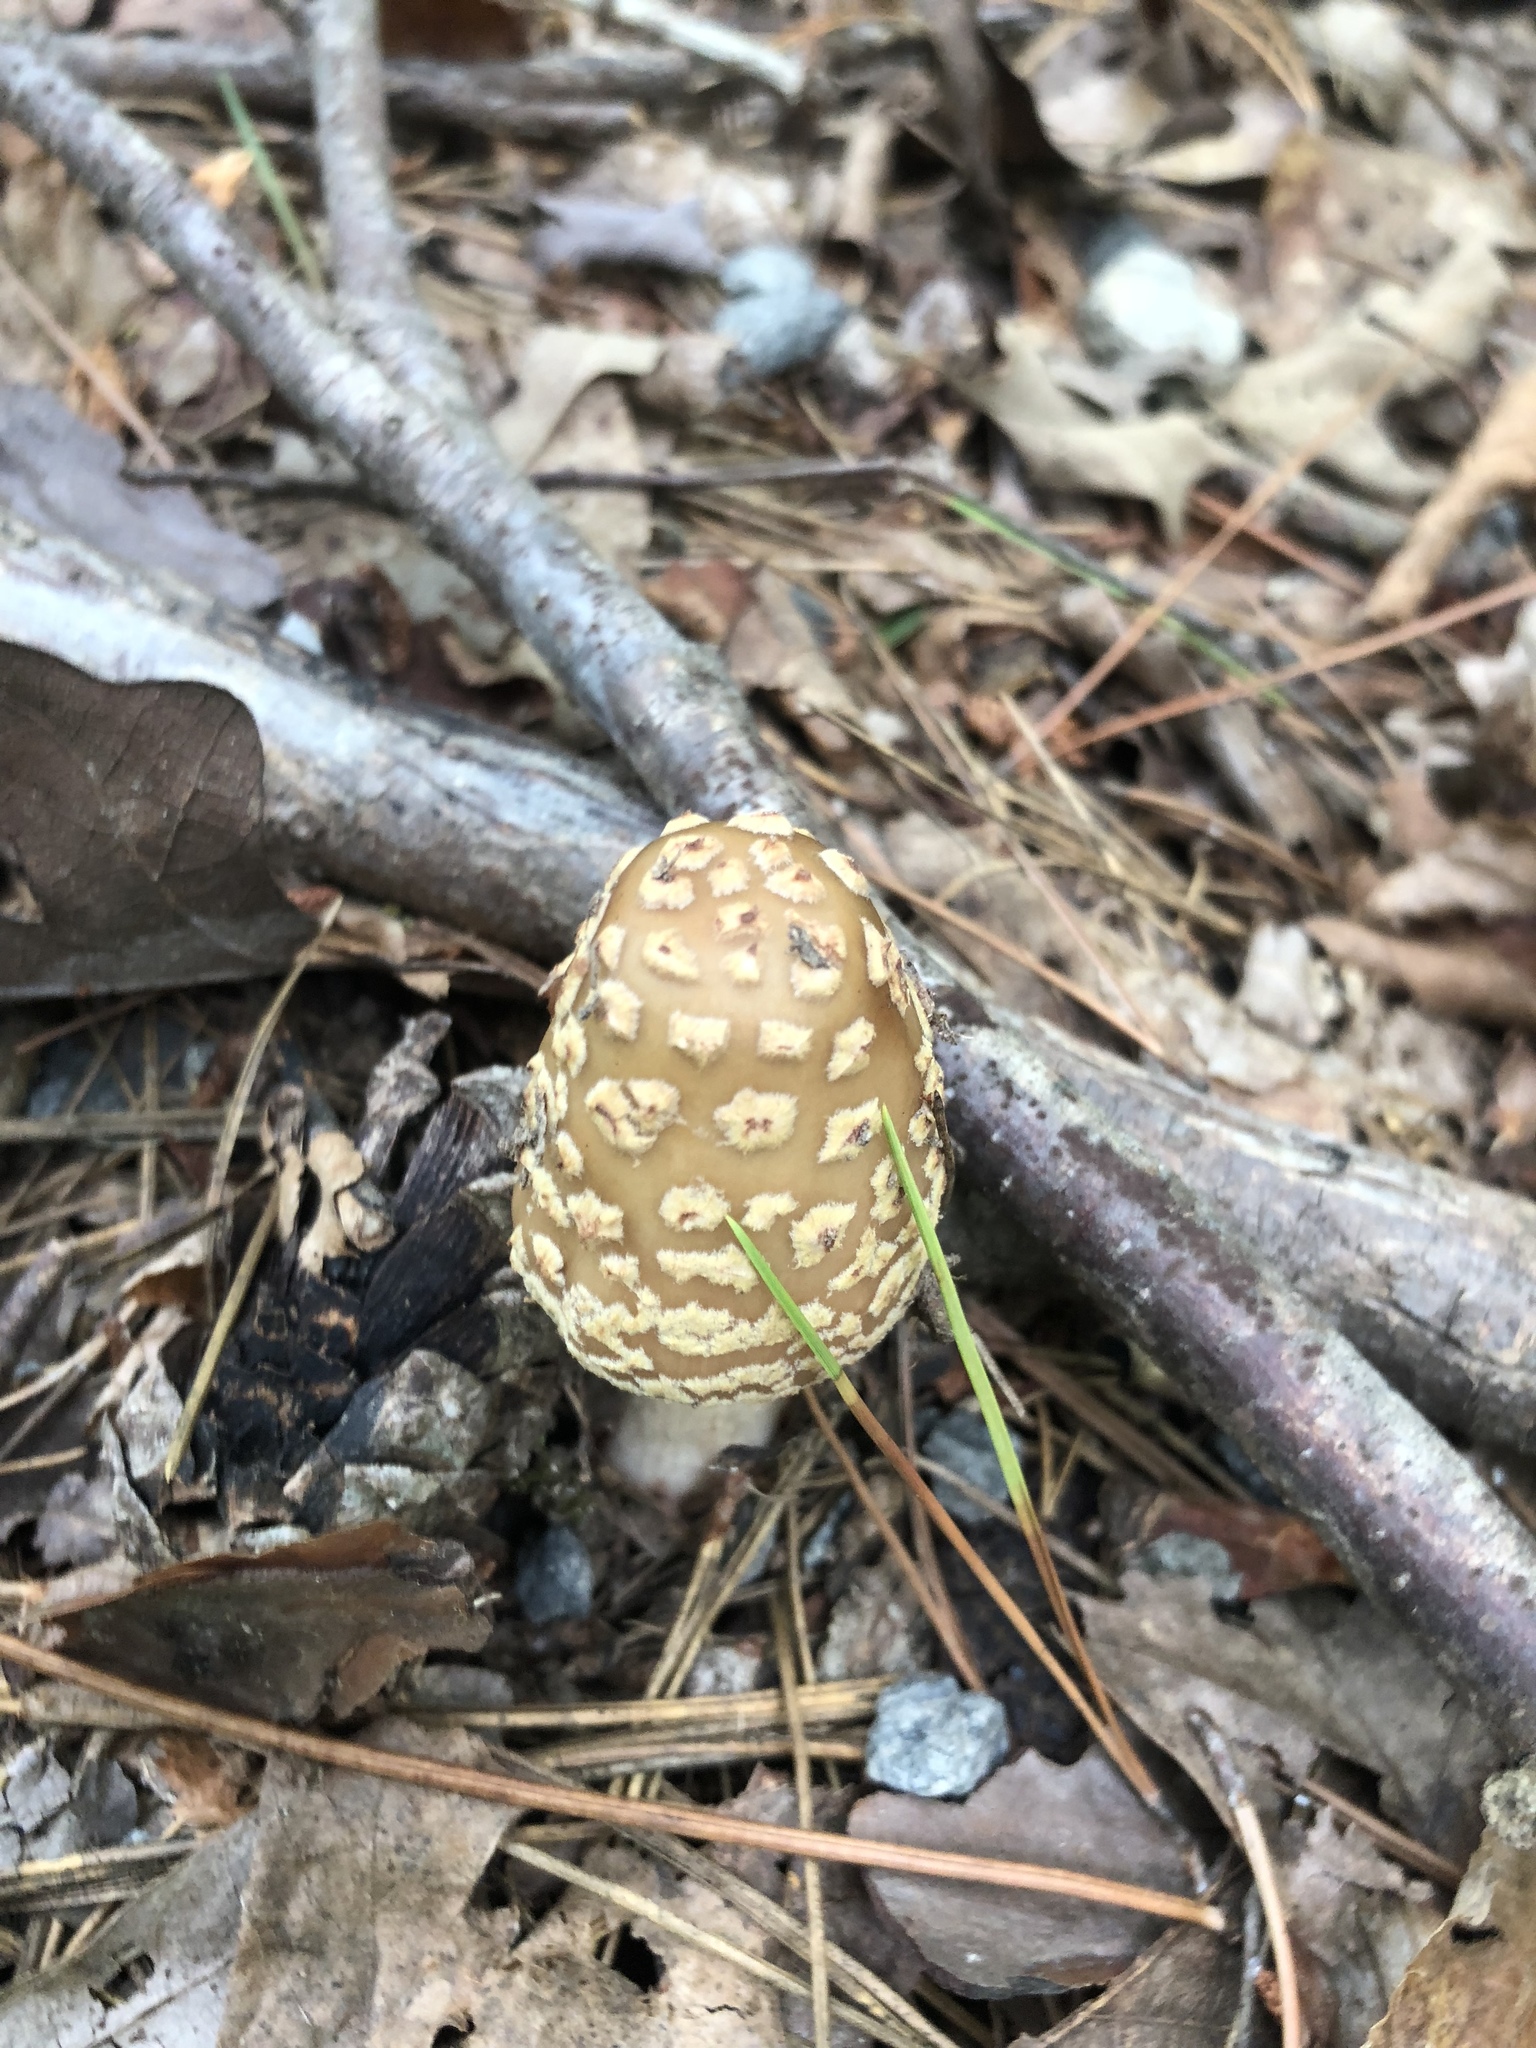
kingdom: Fungi
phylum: Basidiomycota
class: Agaricomycetes
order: Agaricales
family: Amanitaceae
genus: Amanita
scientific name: Amanita rubescens
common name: Blusher
